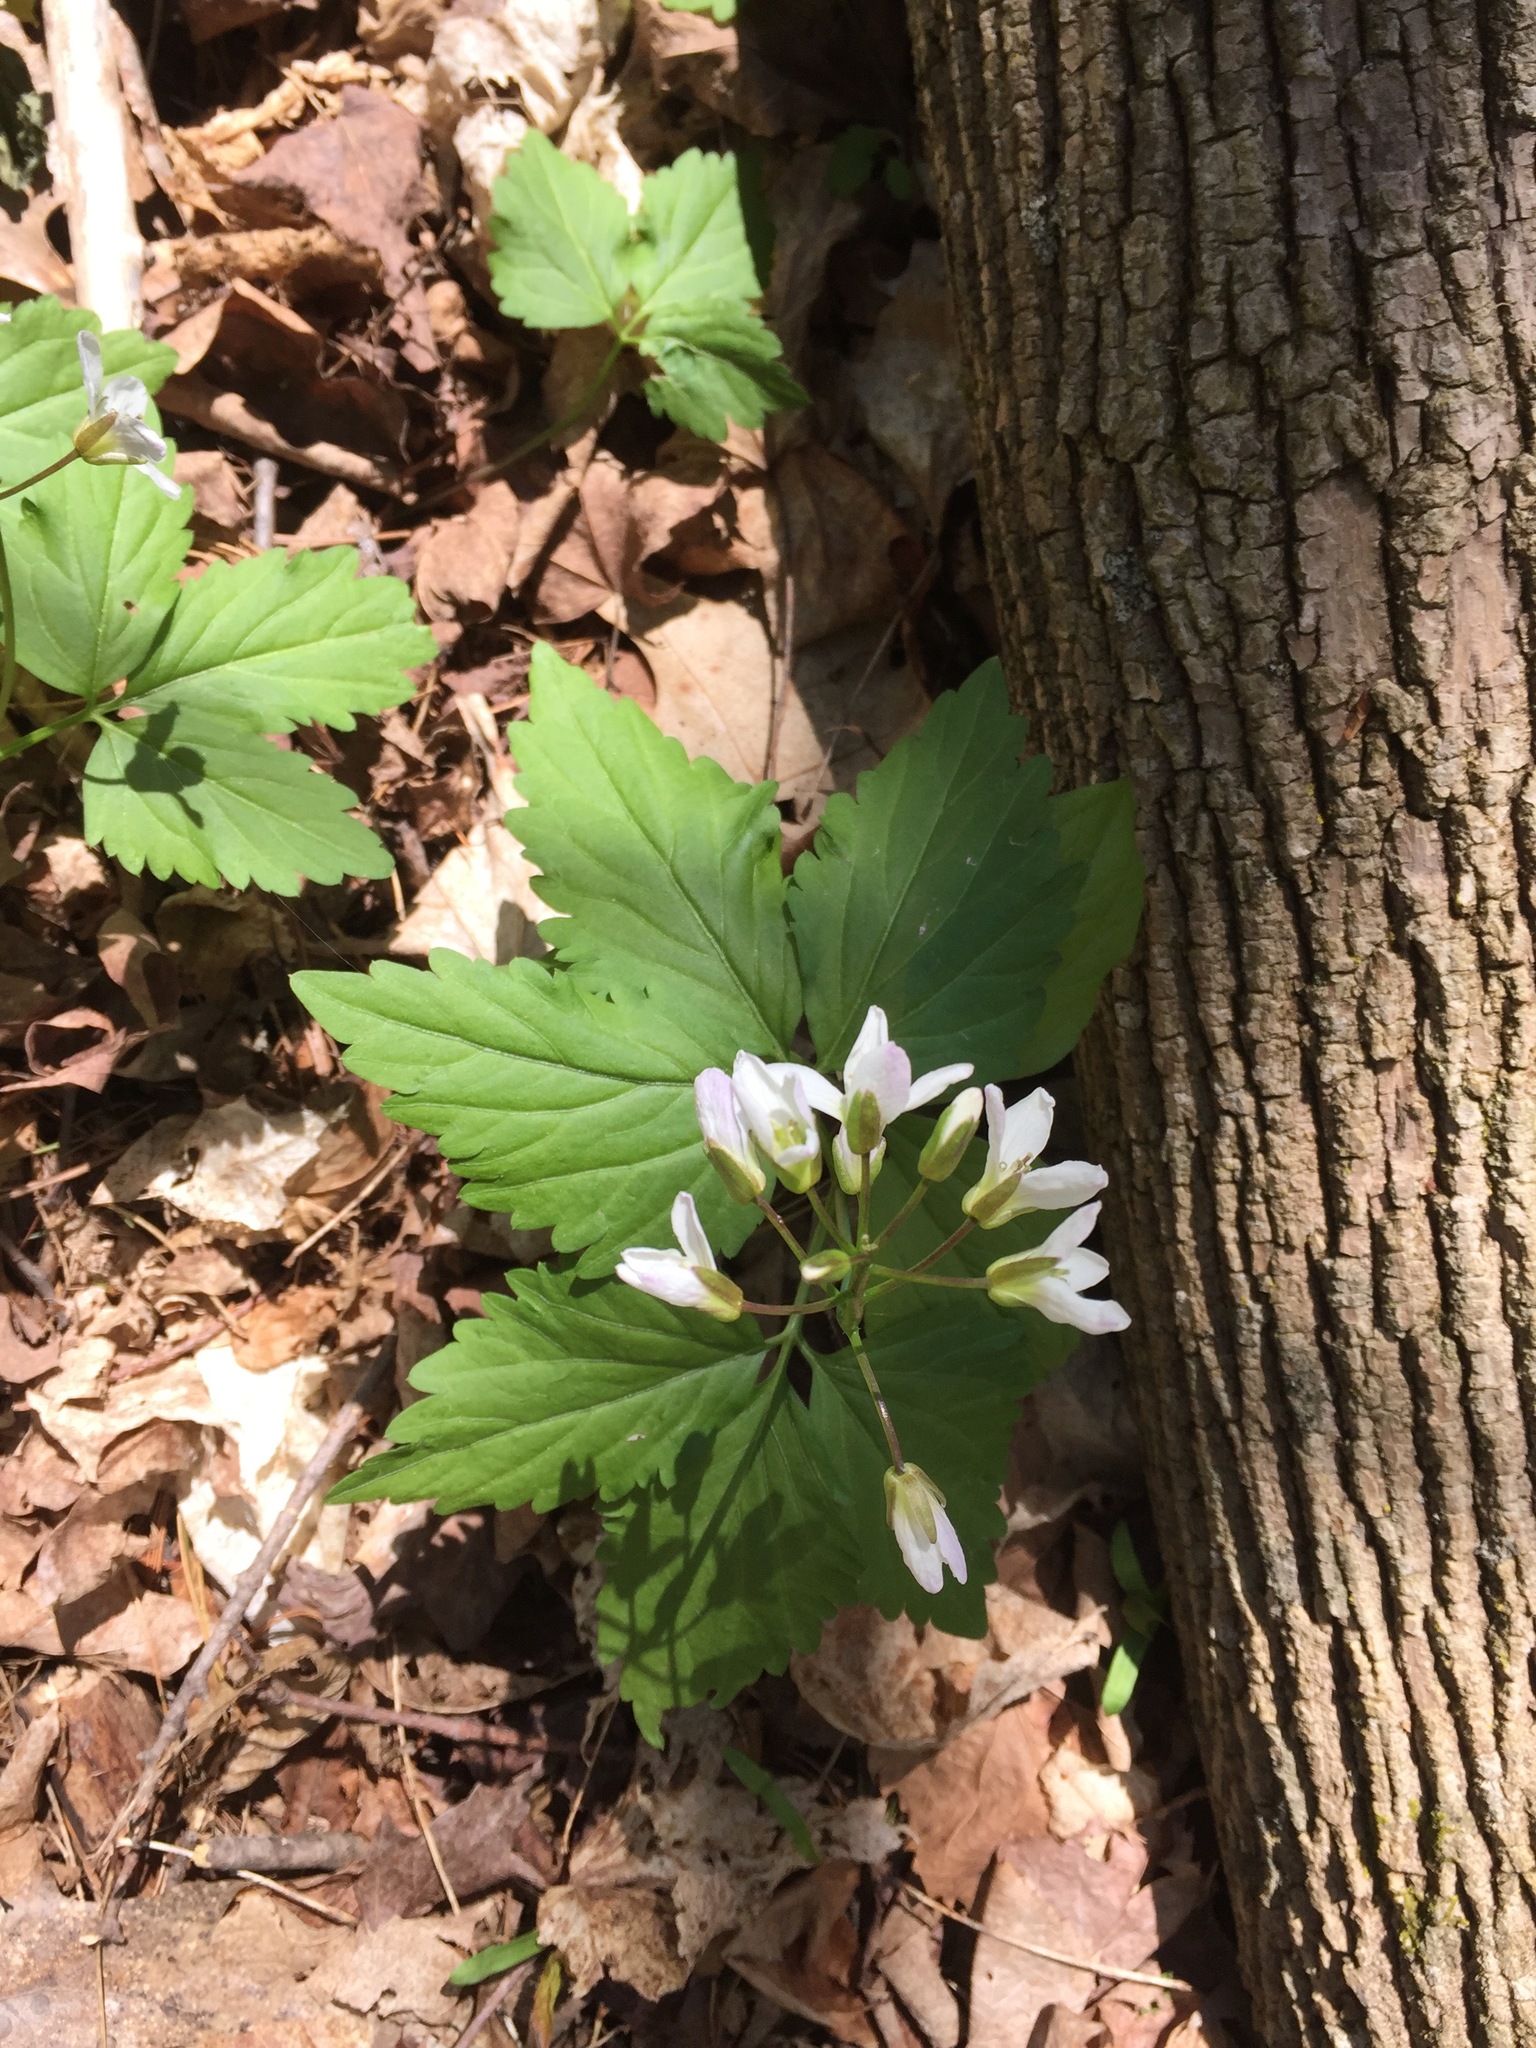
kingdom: Plantae
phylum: Tracheophyta
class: Magnoliopsida
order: Brassicales
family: Brassicaceae
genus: Cardamine
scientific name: Cardamine diphylla
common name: Broad-leaved toothwort
